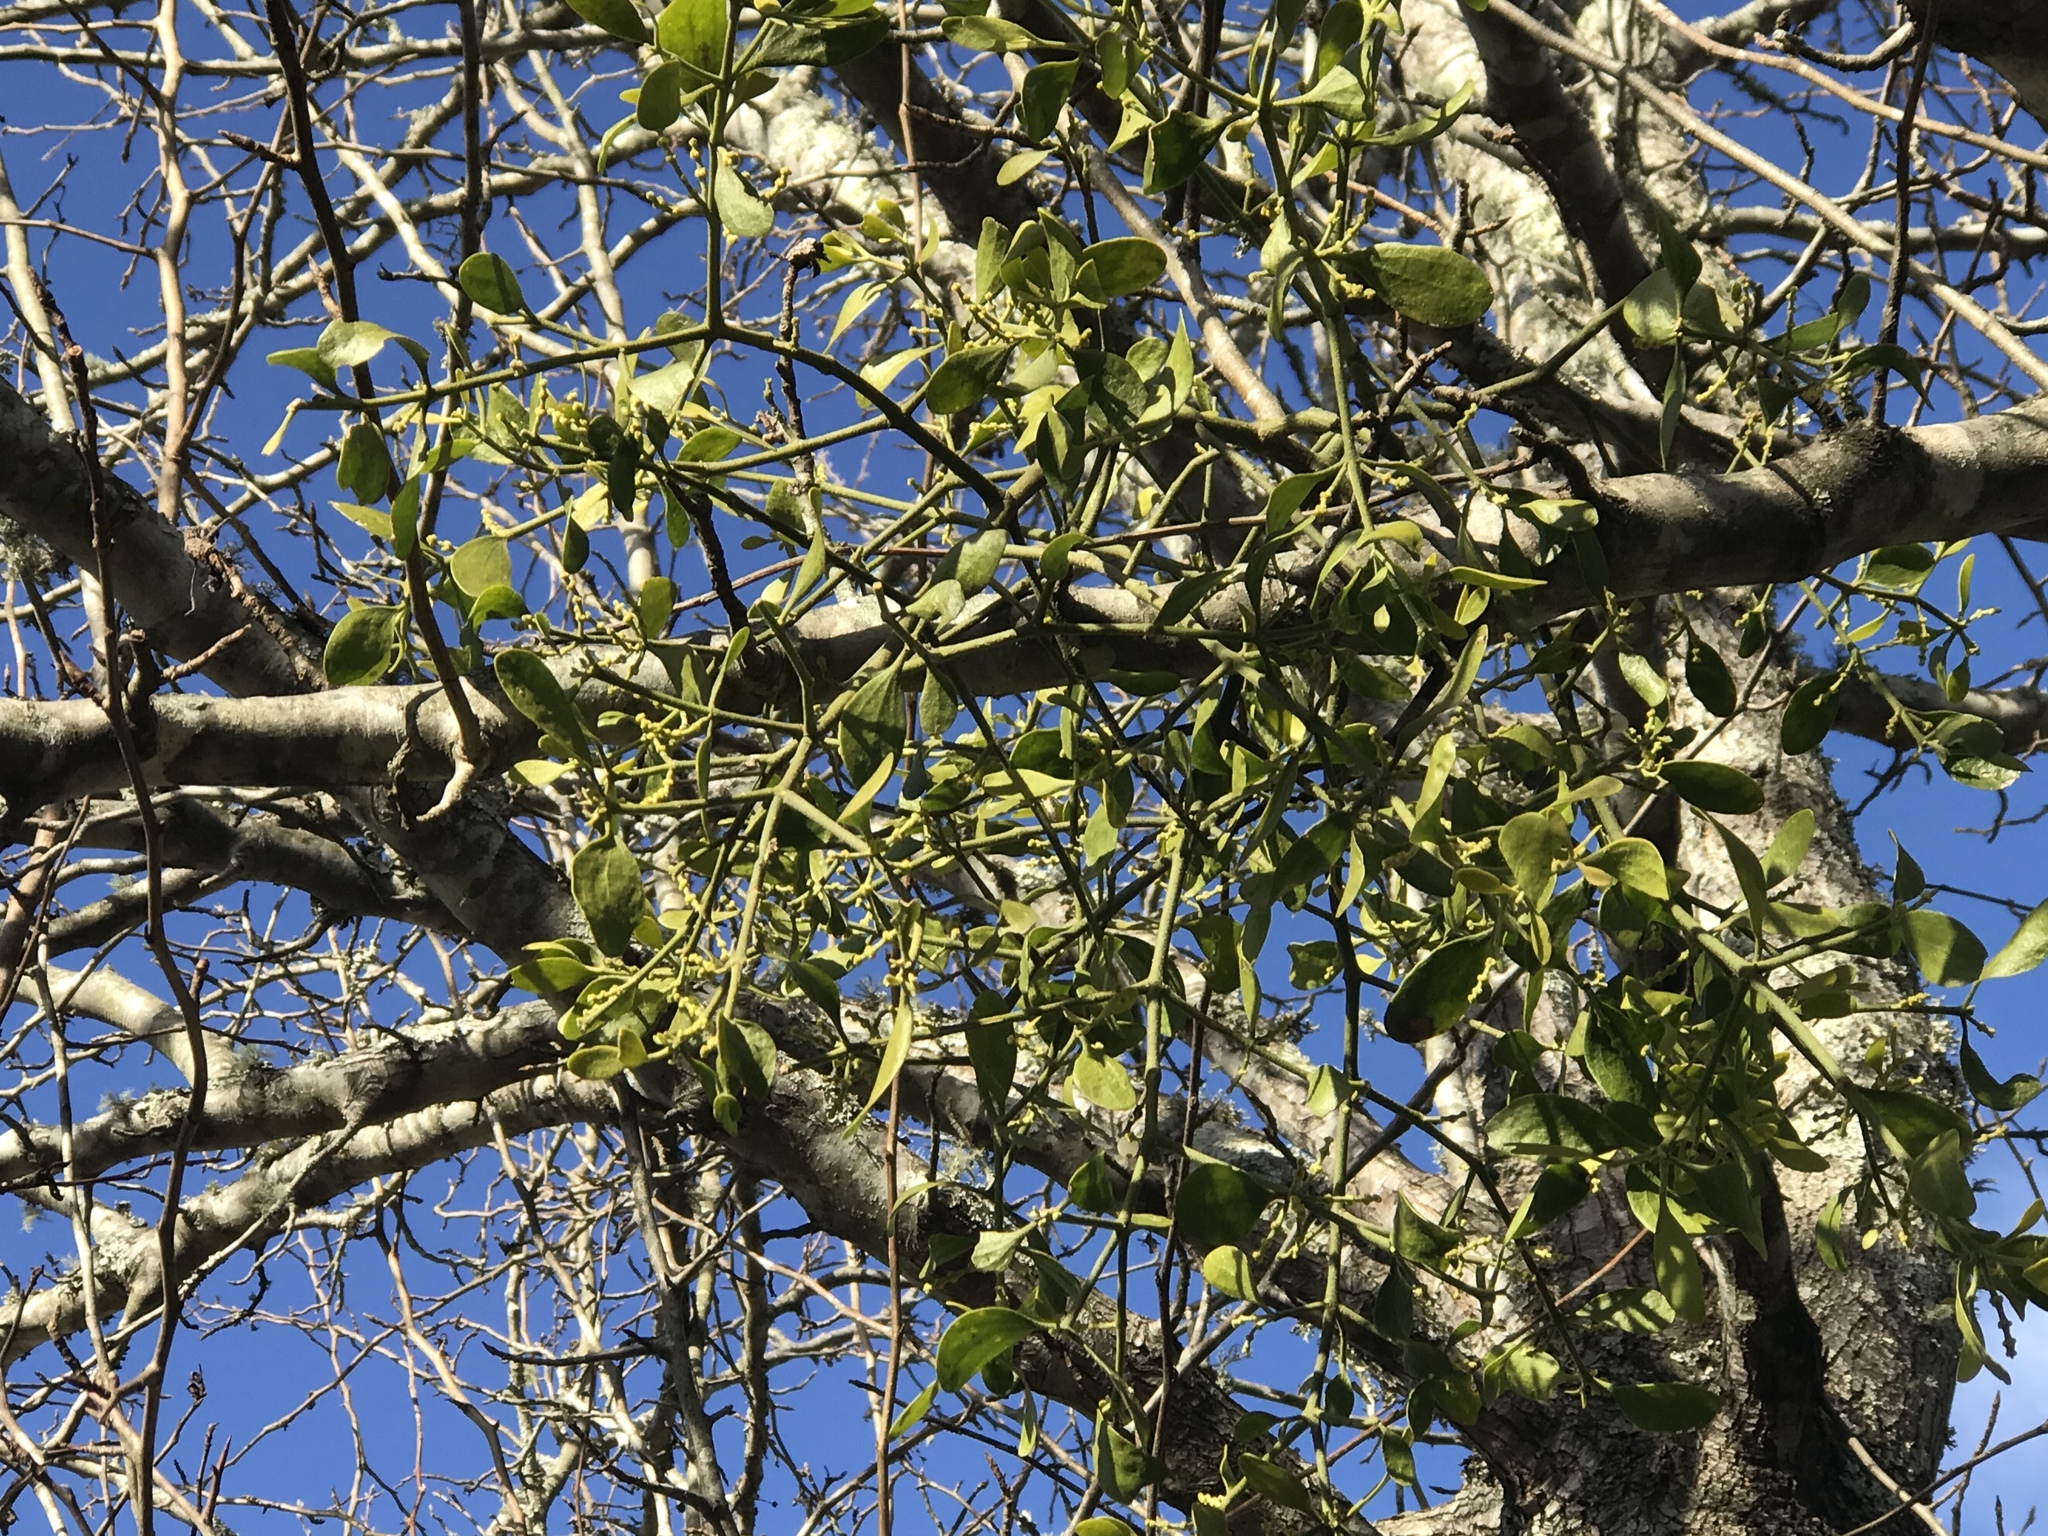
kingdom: Plantae
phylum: Tracheophyta
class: Magnoliopsida
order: Santalales
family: Viscaceae
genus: Phoradendron
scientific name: Phoradendron leucarpum
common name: Pacific mistletoe
